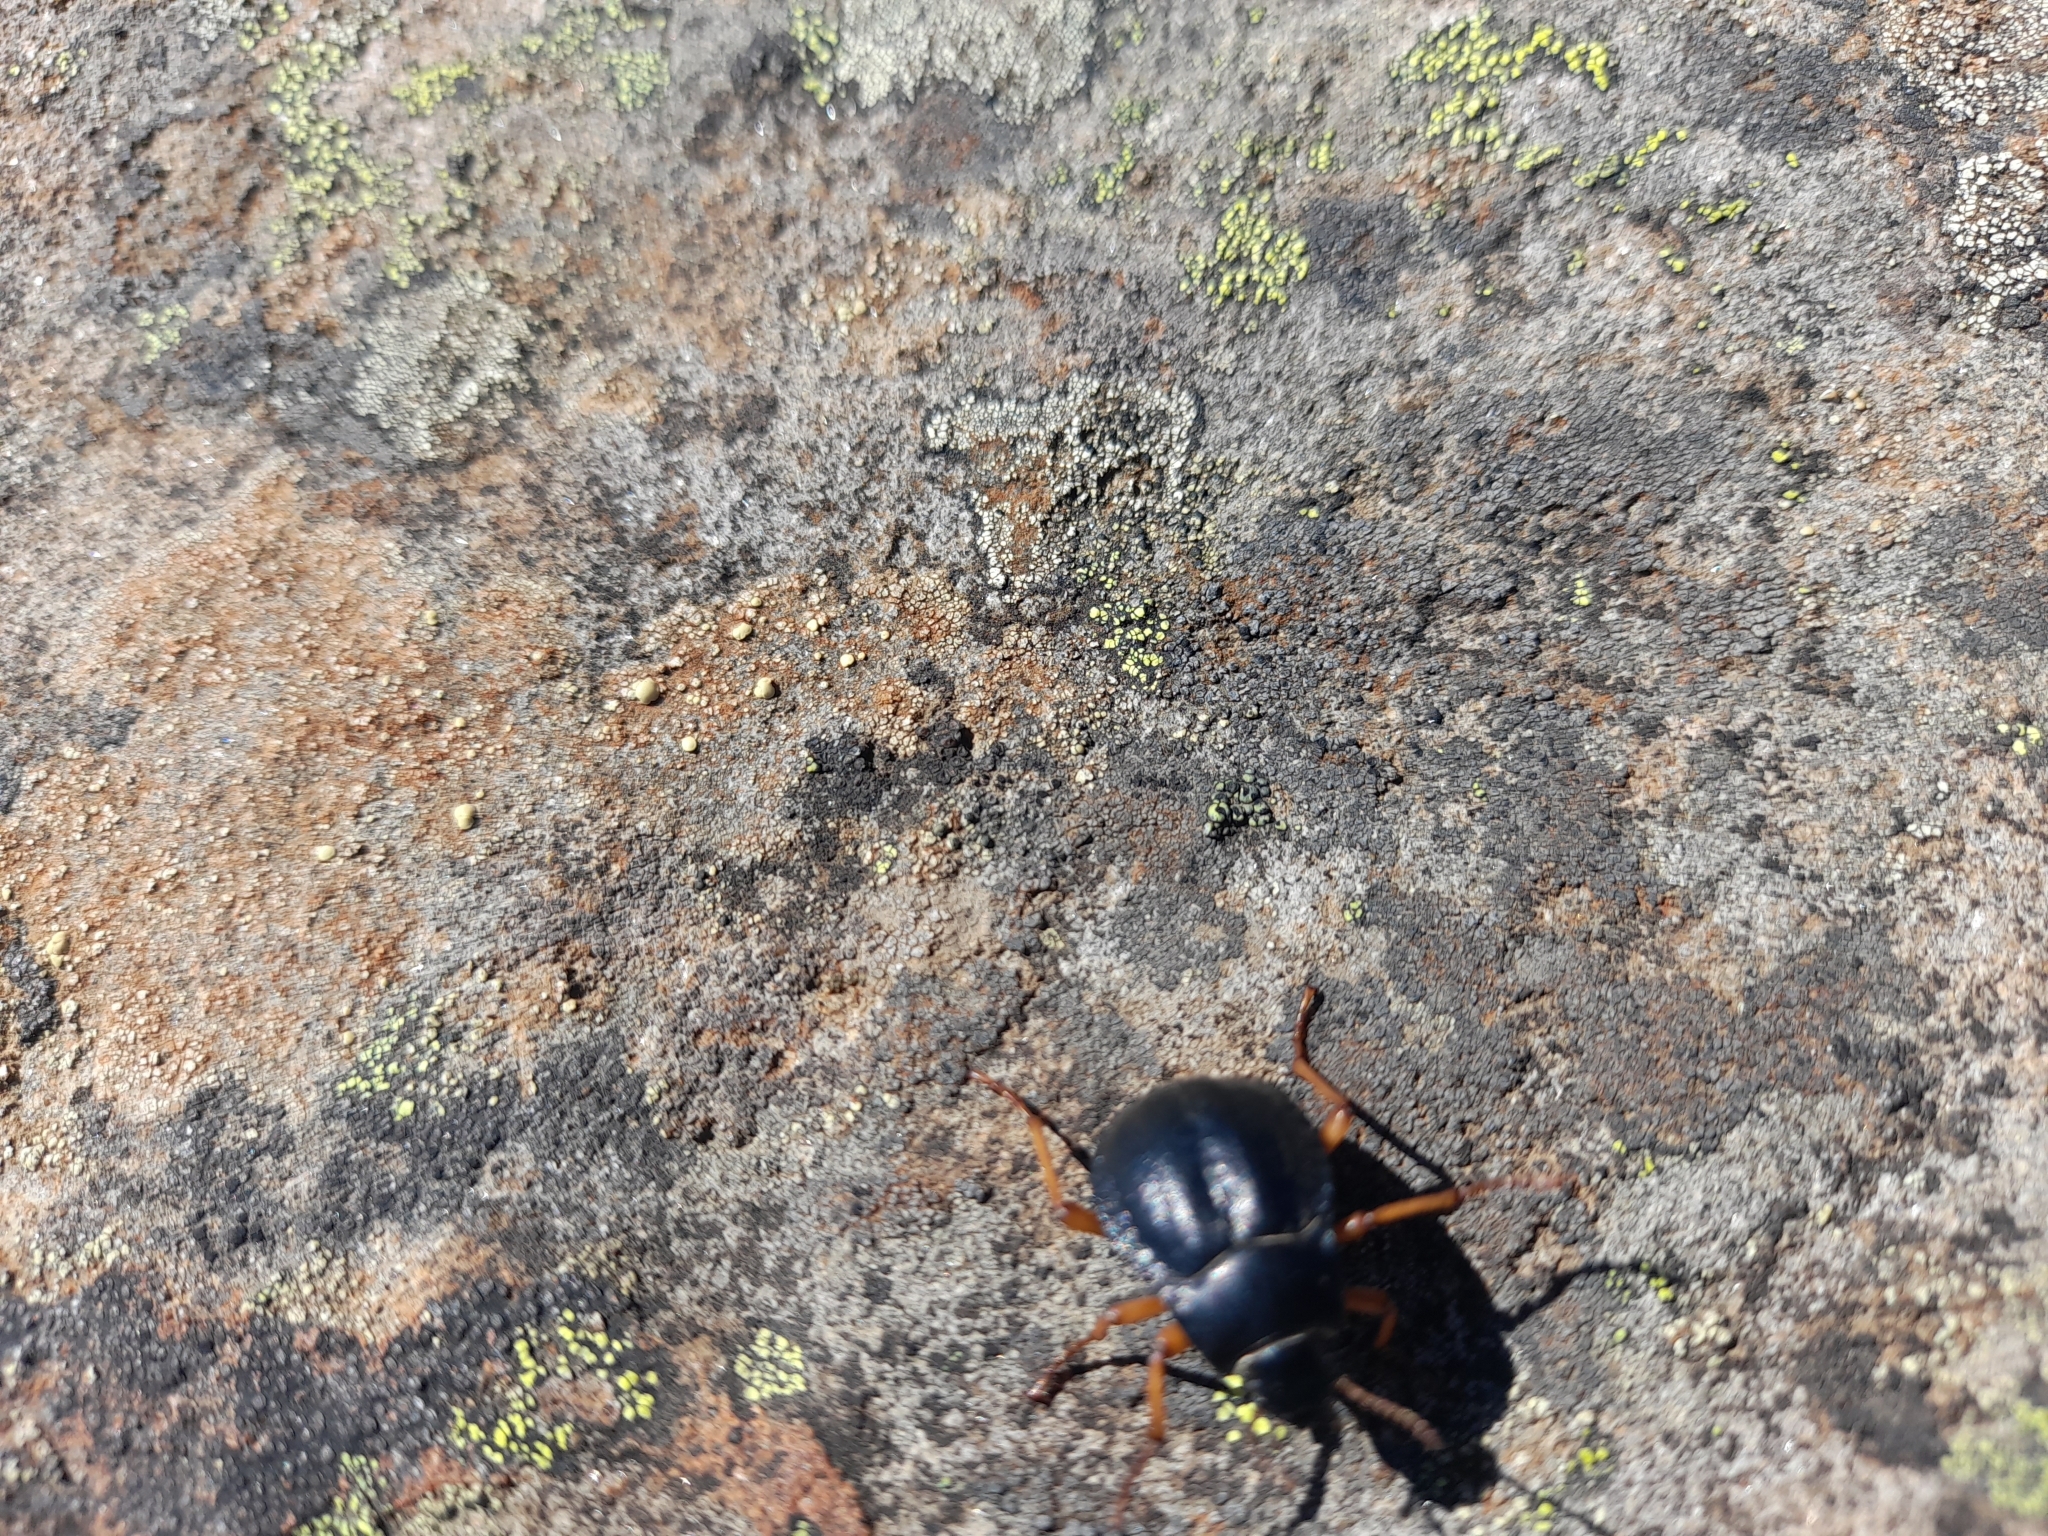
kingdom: Animalia
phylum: Arthropoda
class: Insecta
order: Coleoptera
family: Tenebrionidae
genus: Nyctelia
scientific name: Nyctelia
